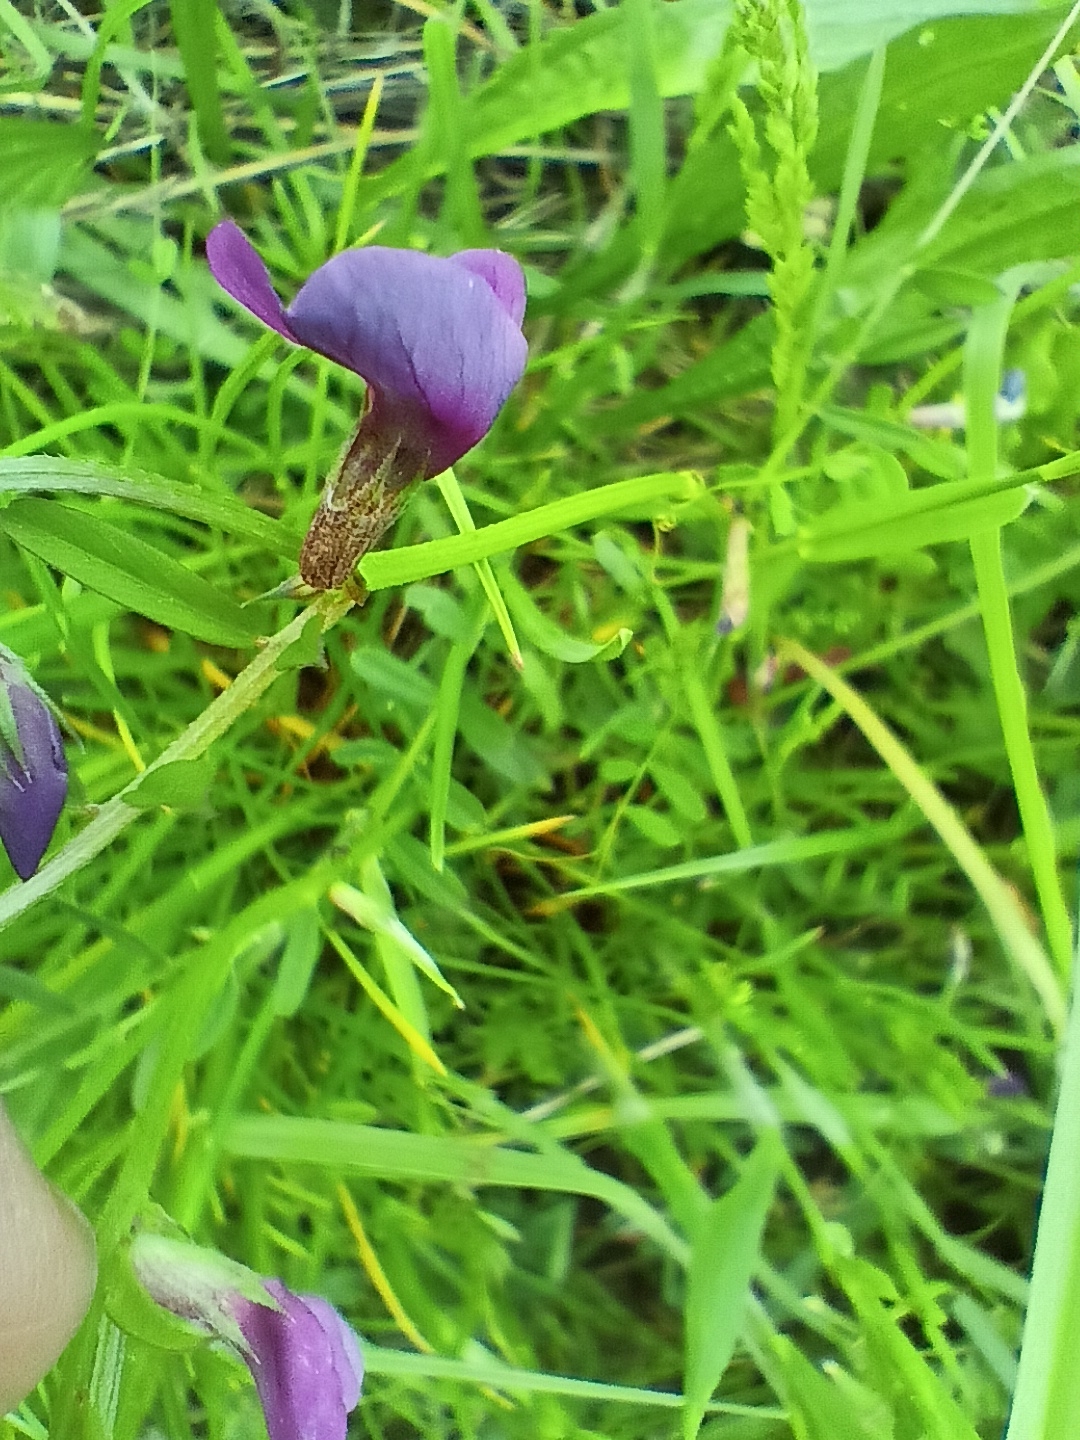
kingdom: Plantae
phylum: Tracheophyta
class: Magnoliopsida
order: Fabales
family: Fabaceae
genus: Vicia
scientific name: Vicia sativa
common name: Garden vetch
